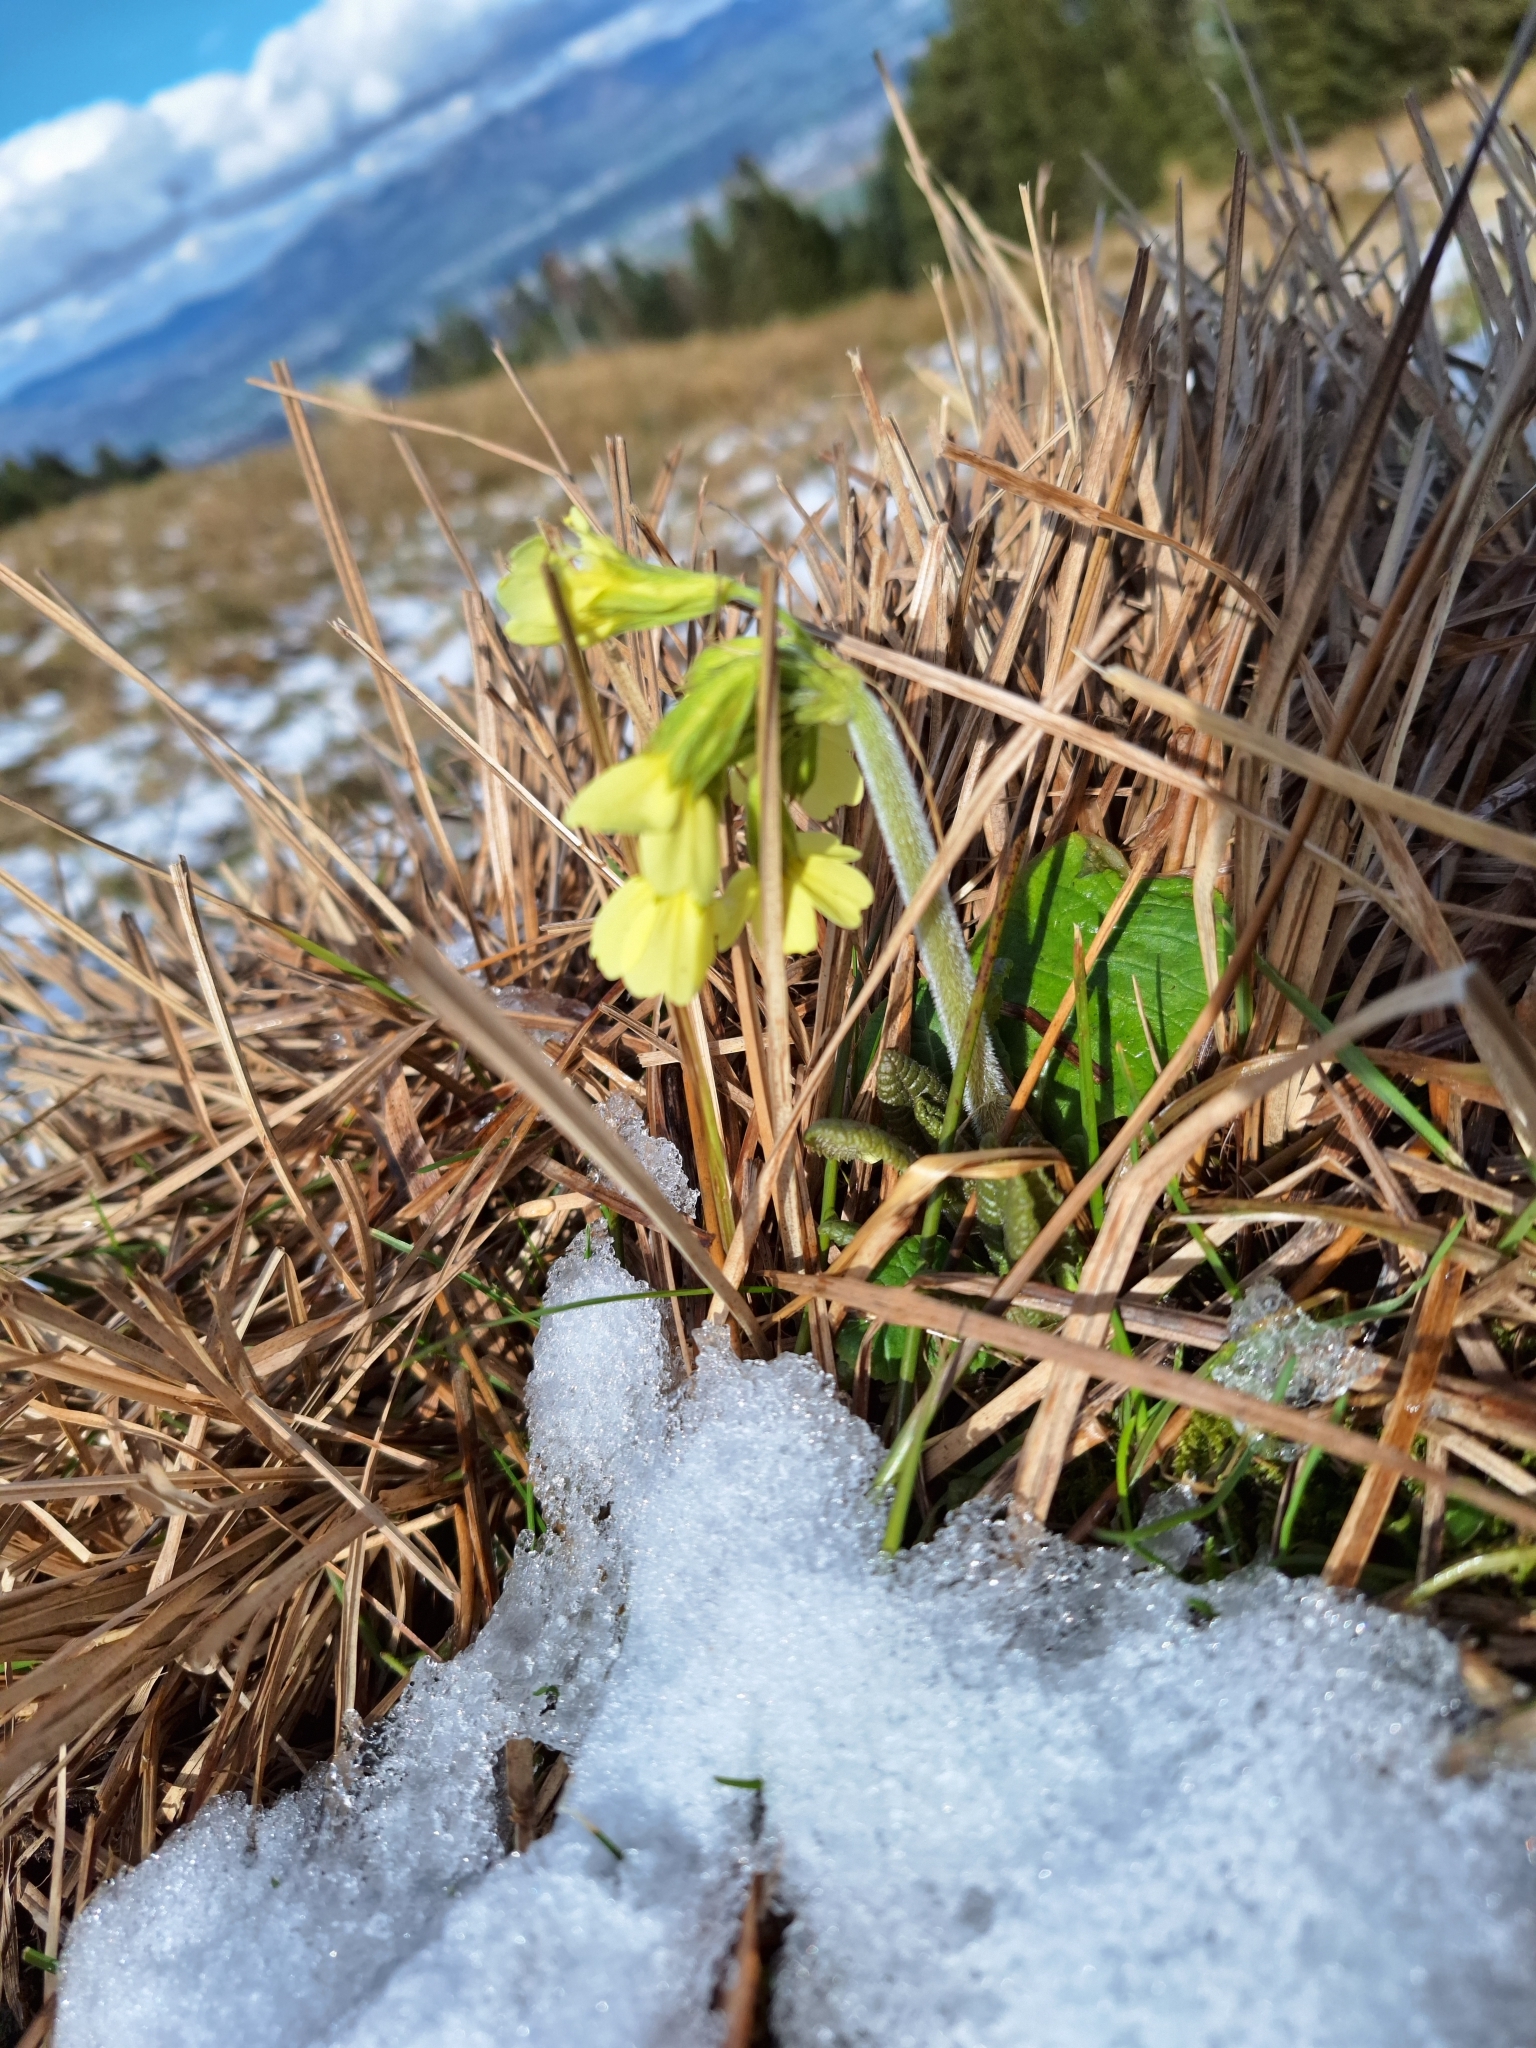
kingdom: Plantae
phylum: Tracheophyta
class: Magnoliopsida
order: Ericales
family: Primulaceae
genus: Primula
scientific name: Primula elatior
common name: Oxlip
